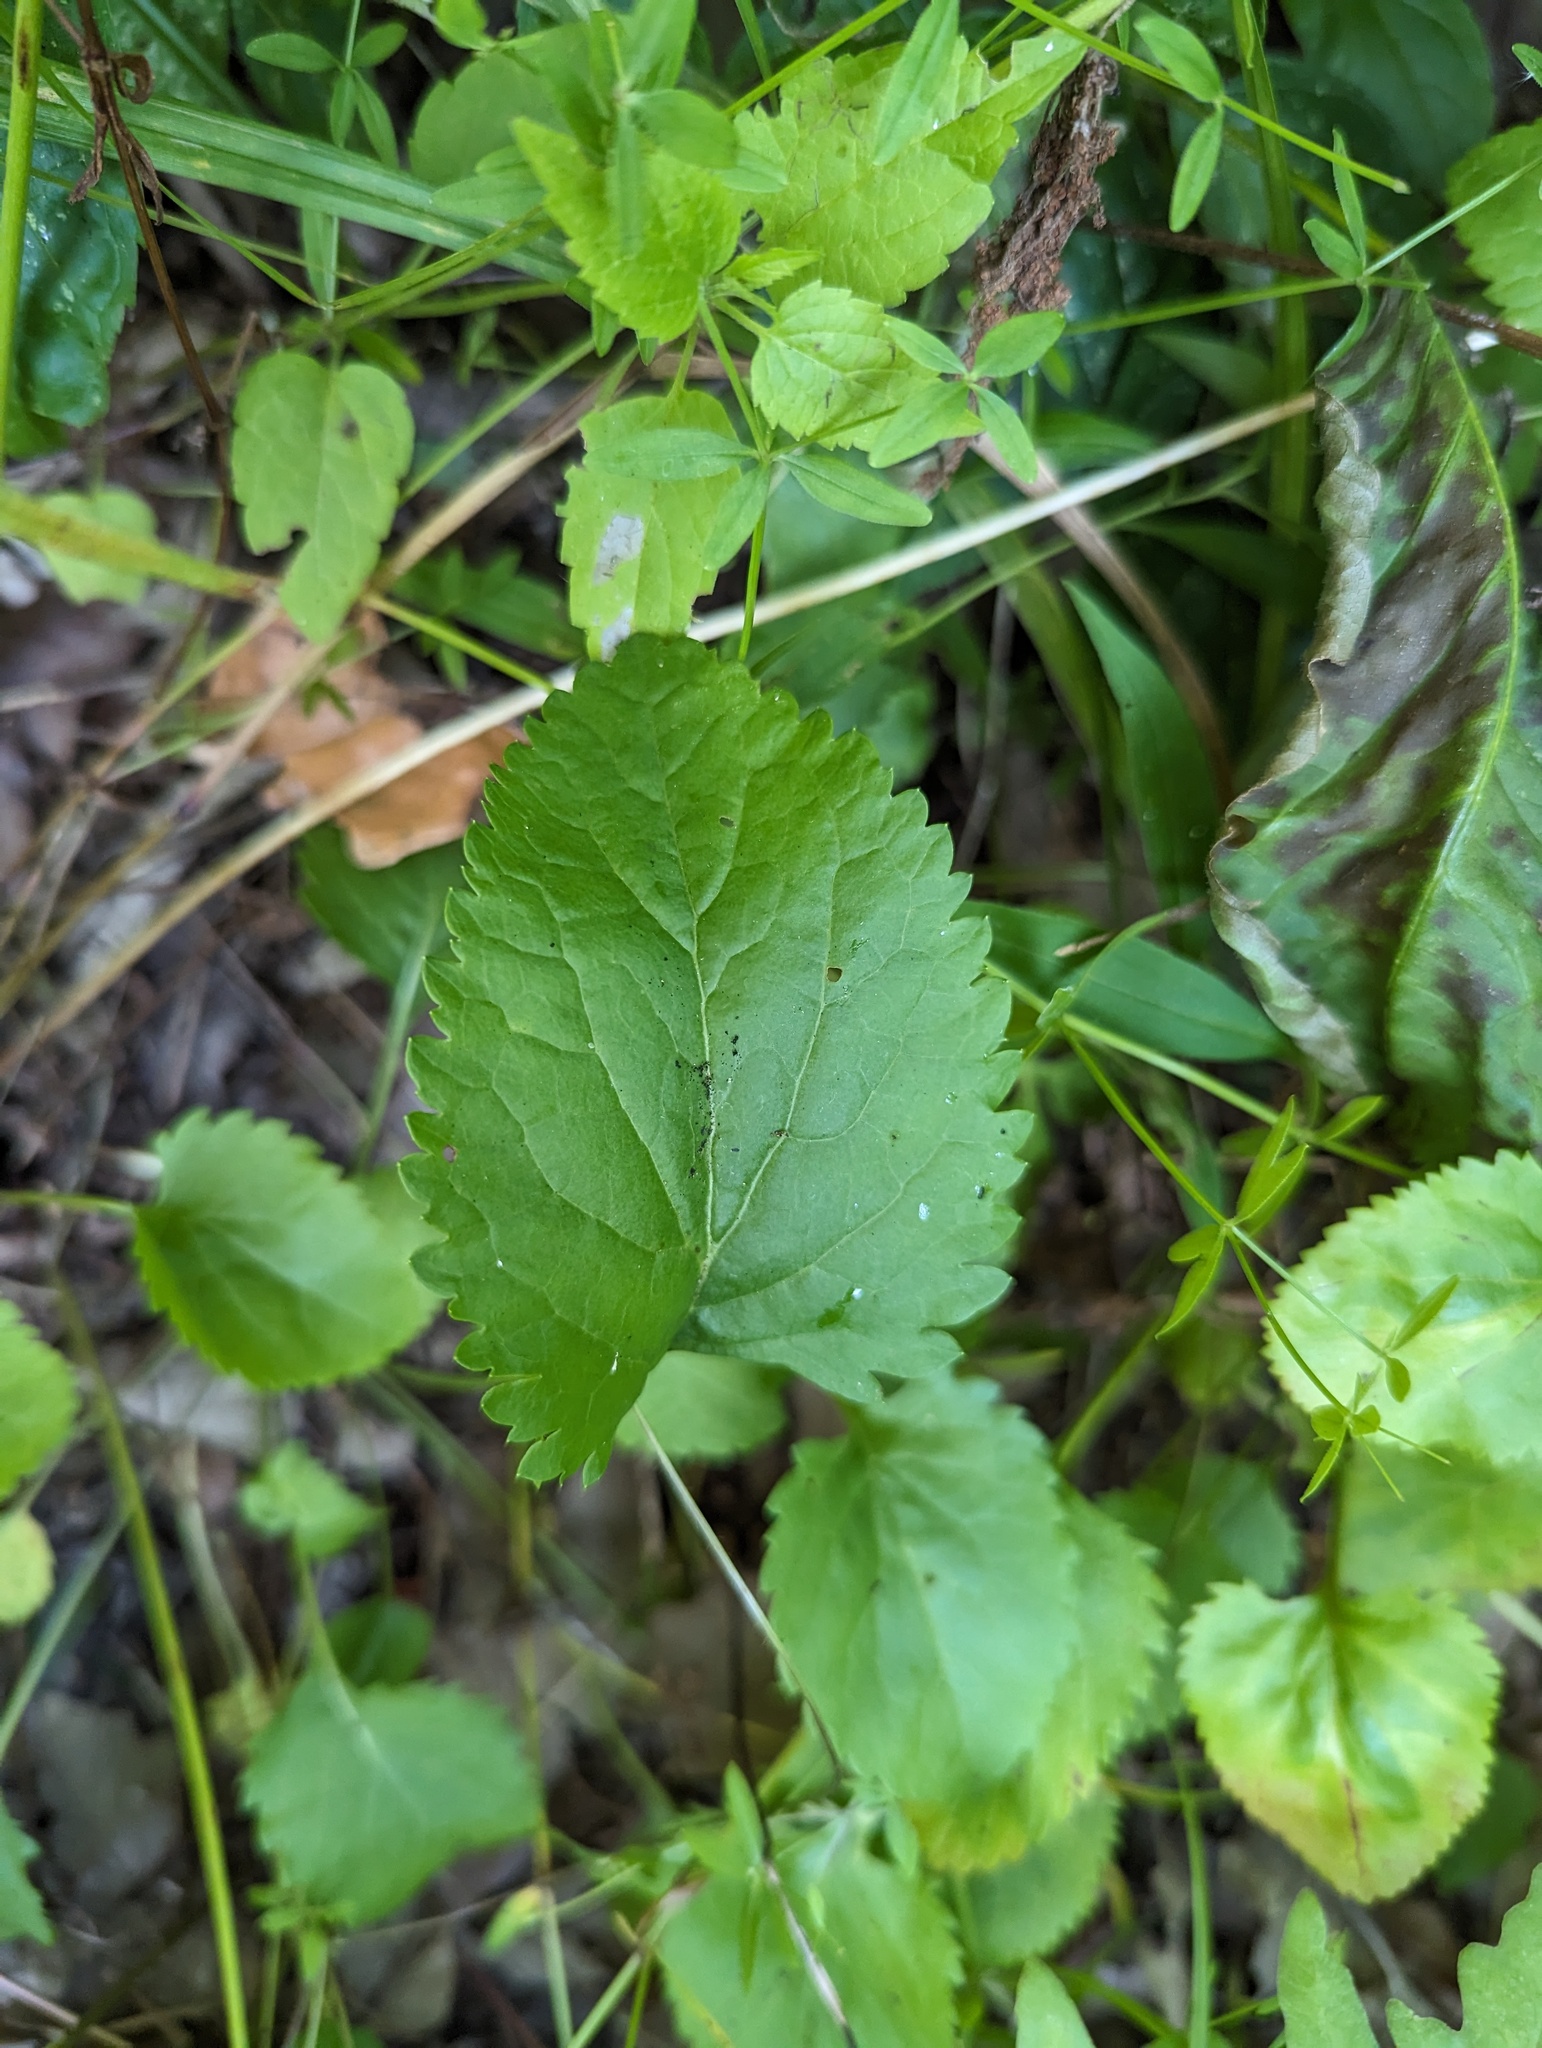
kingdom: Plantae
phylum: Tracheophyta
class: Magnoliopsida
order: Asterales
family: Asteraceae
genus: Packera
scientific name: Packera pseudaurea
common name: False-gold groundsel
